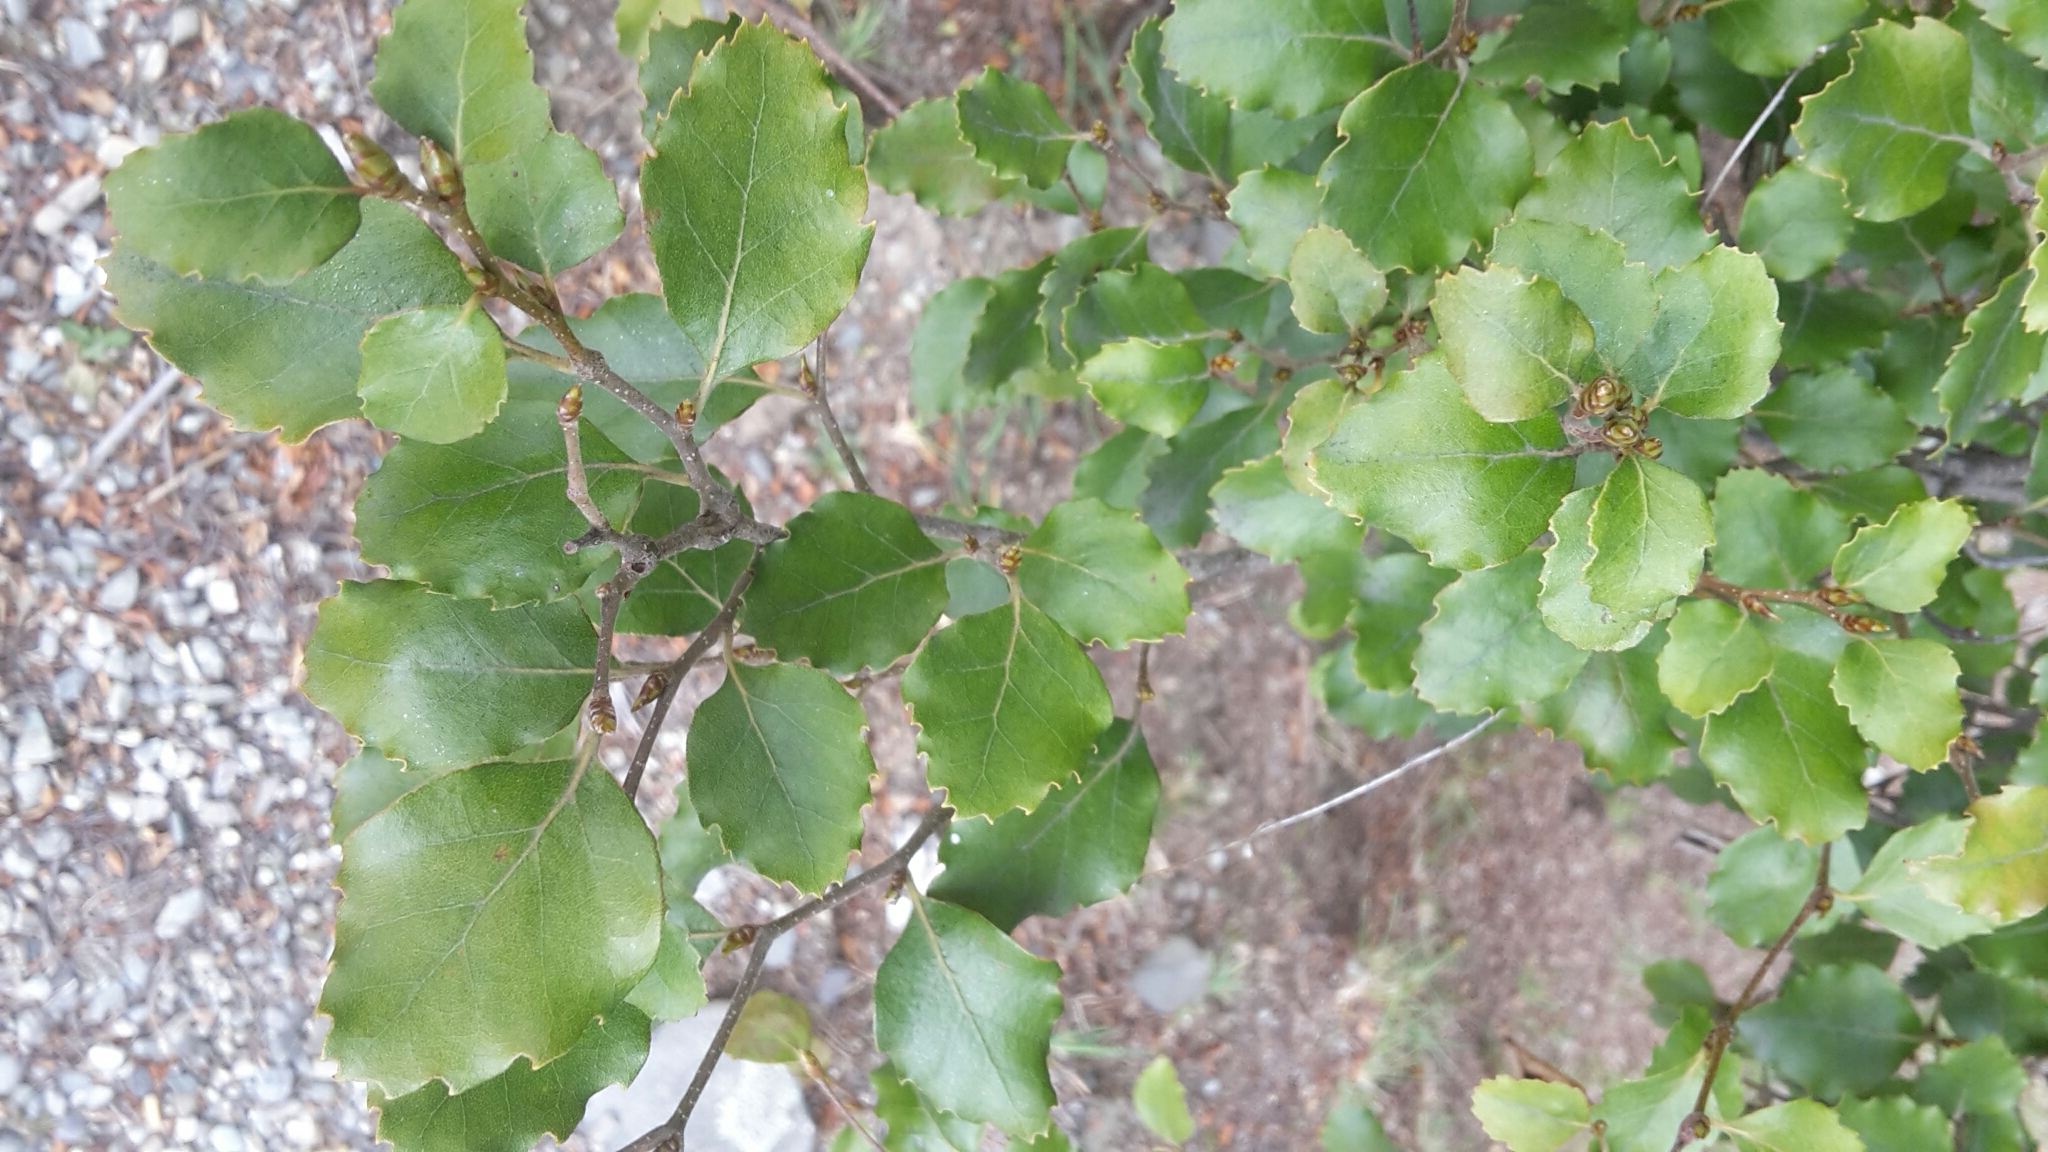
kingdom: Plantae
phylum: Tracheophyta
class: Magnoliopsida
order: Fagales
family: Nothofagaceae
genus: Nothofagus
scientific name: Nothofagus fusca
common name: Red beech
